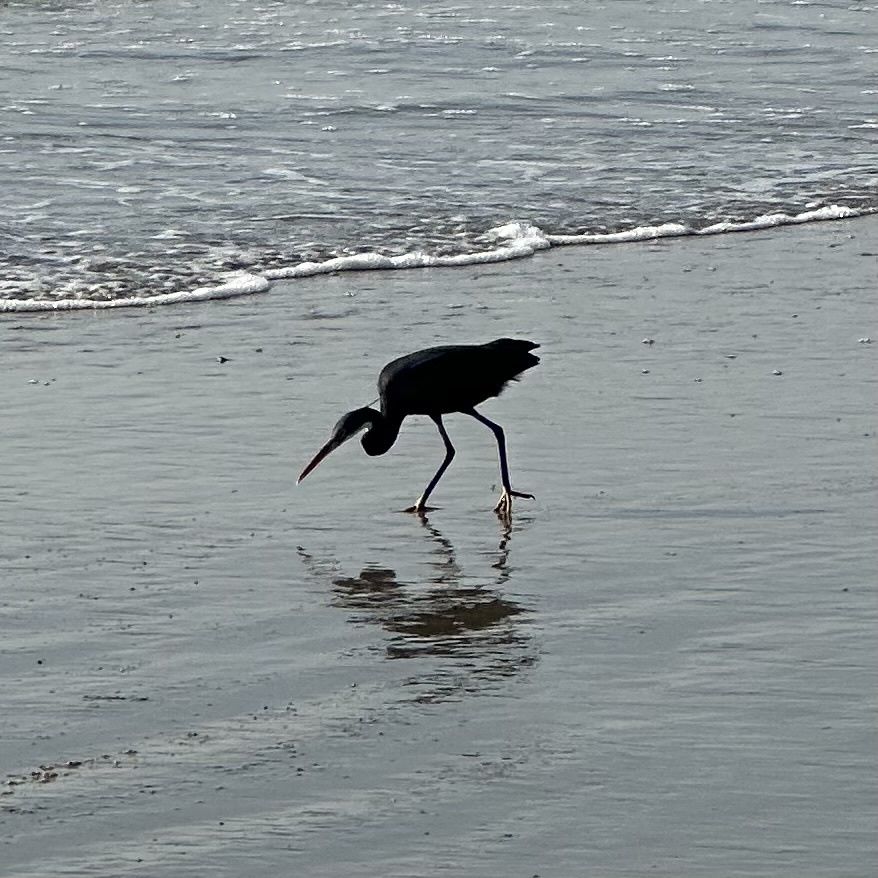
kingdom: Animalia
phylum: Chordata
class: Aves
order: Pelecaniformes
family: Ardeidae
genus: Egretta
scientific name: Egretta gularis
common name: Western reef-heron
